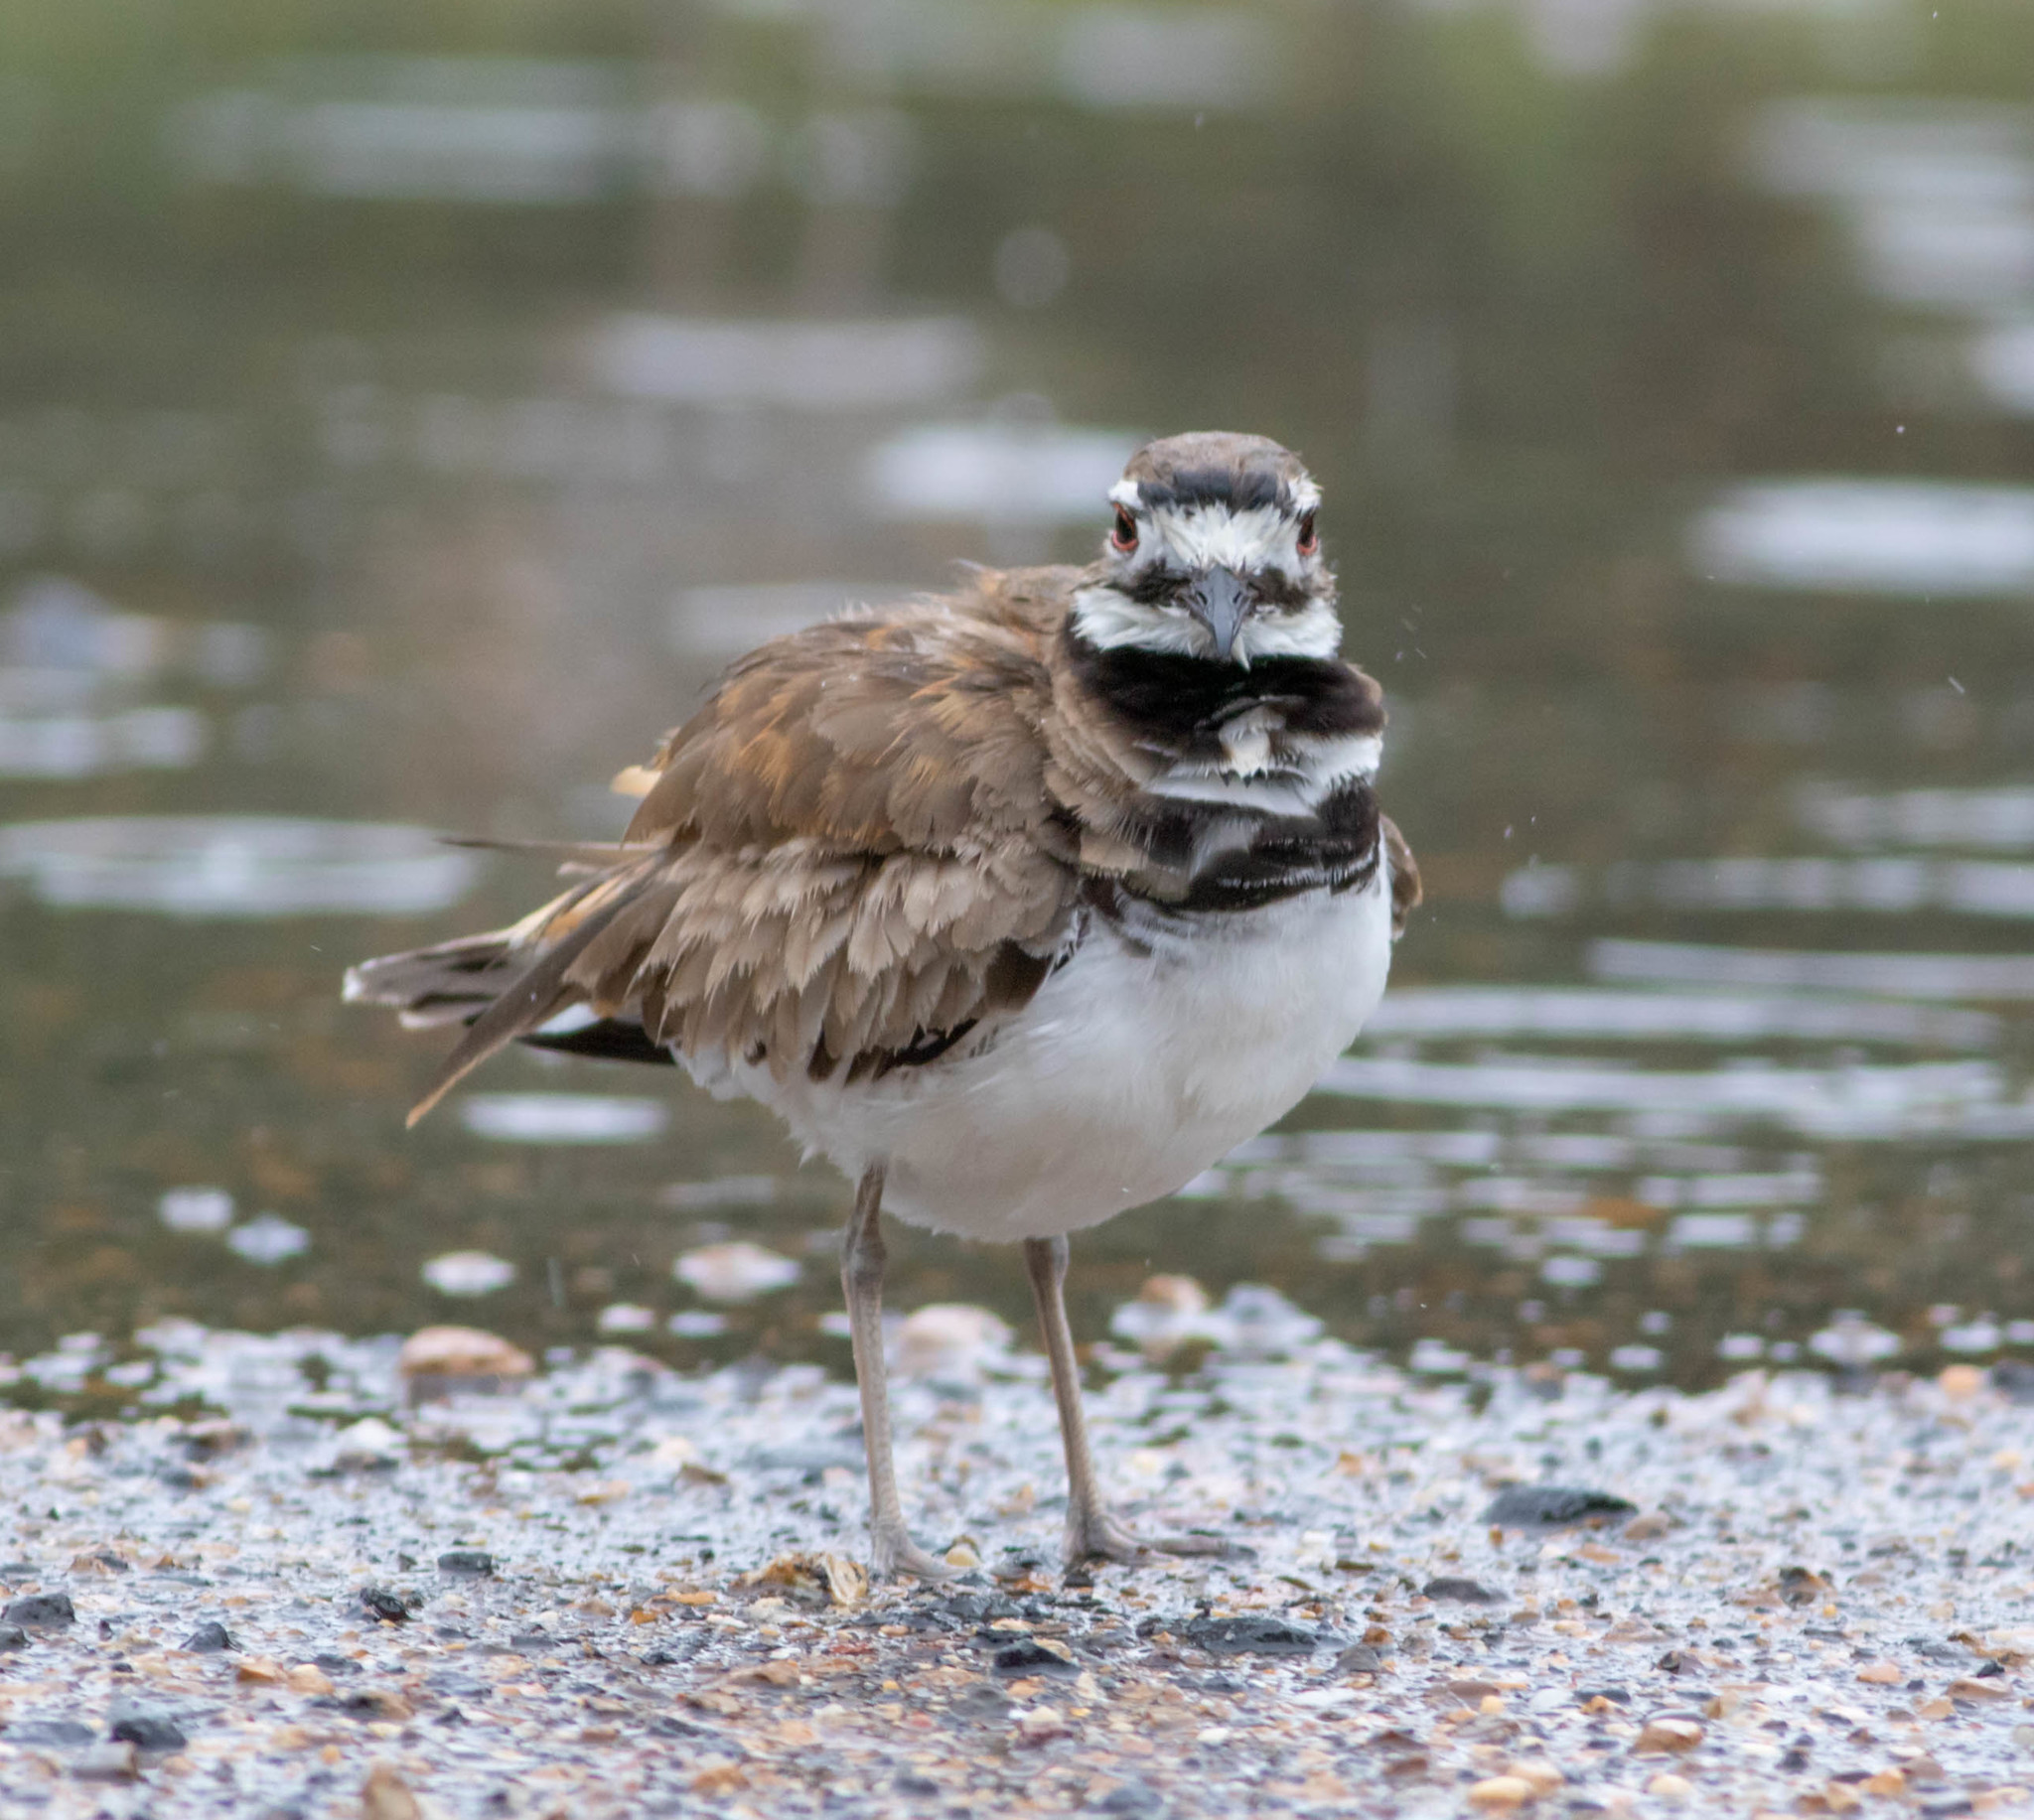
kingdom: Animalia
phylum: Chordata
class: Aves
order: Charadriiformes
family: Charadriidae
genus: Charadrius
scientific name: Charadrius vociferus
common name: Killdeer
